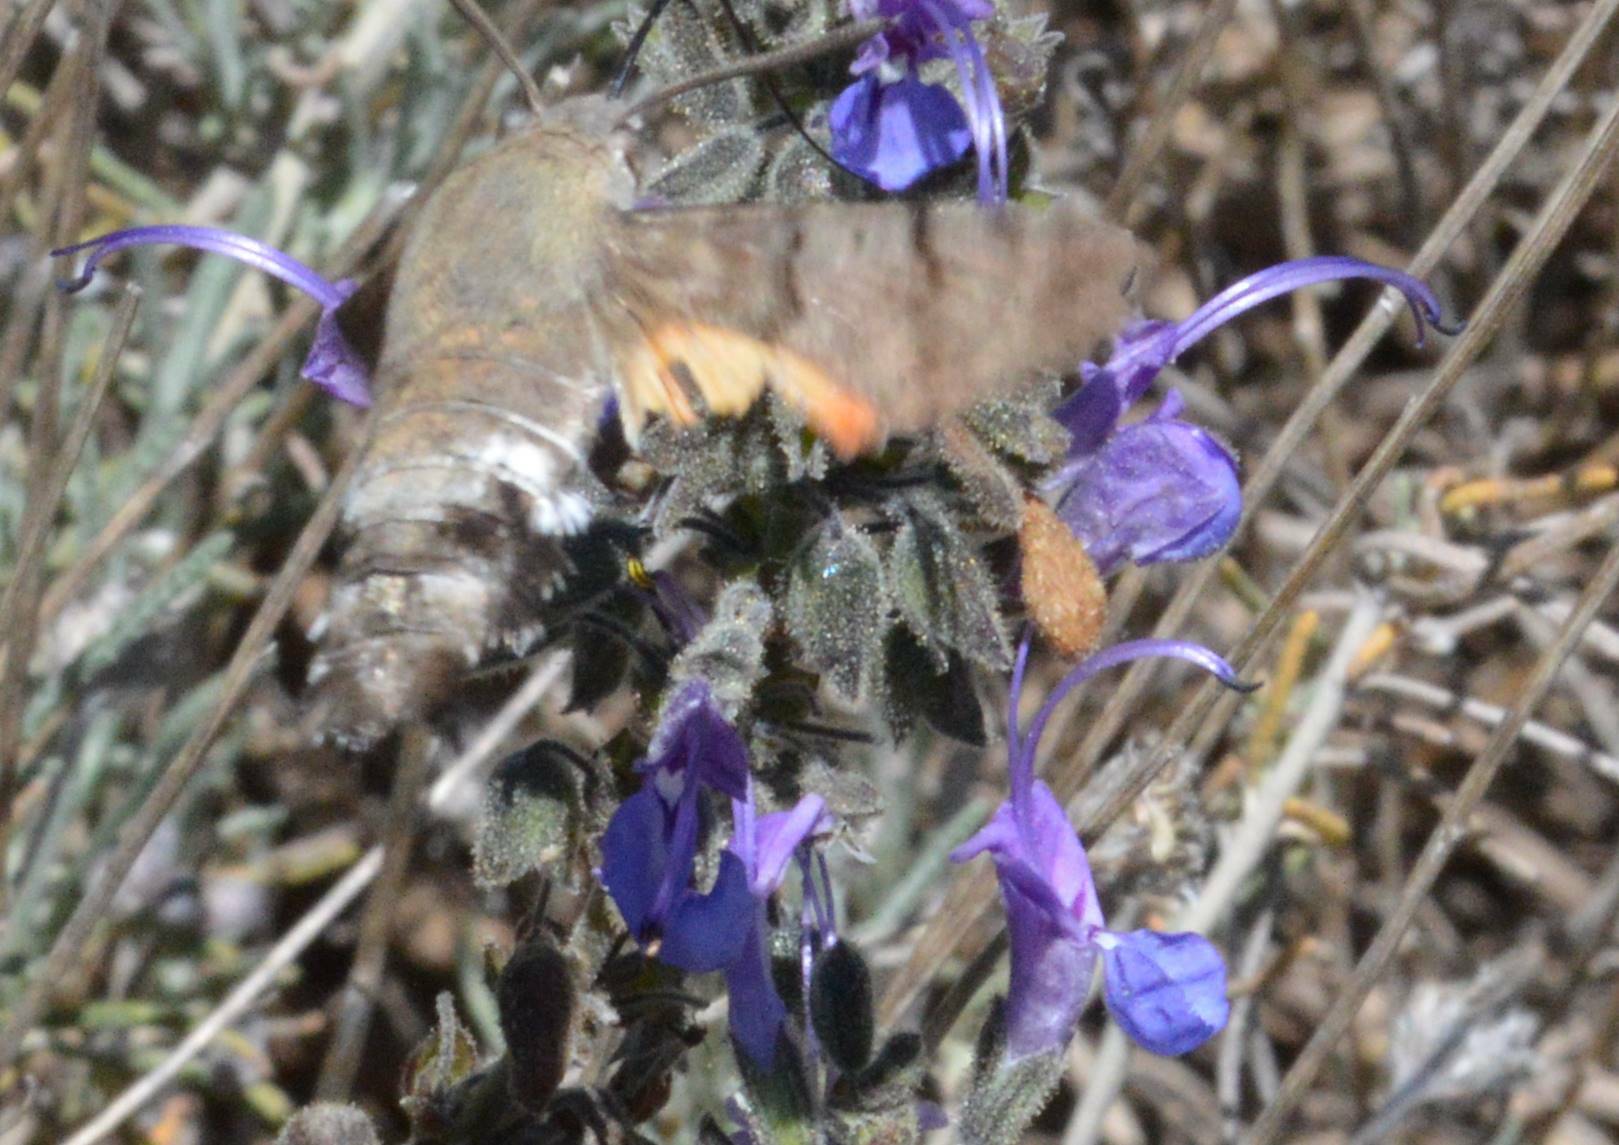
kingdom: Animalia
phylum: Arthropoda
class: Insecta
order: Lepidoptera
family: Sphingidae
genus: Macroglossum
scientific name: Macroglossum stellatarum
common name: Humming-bird hawk-moth
